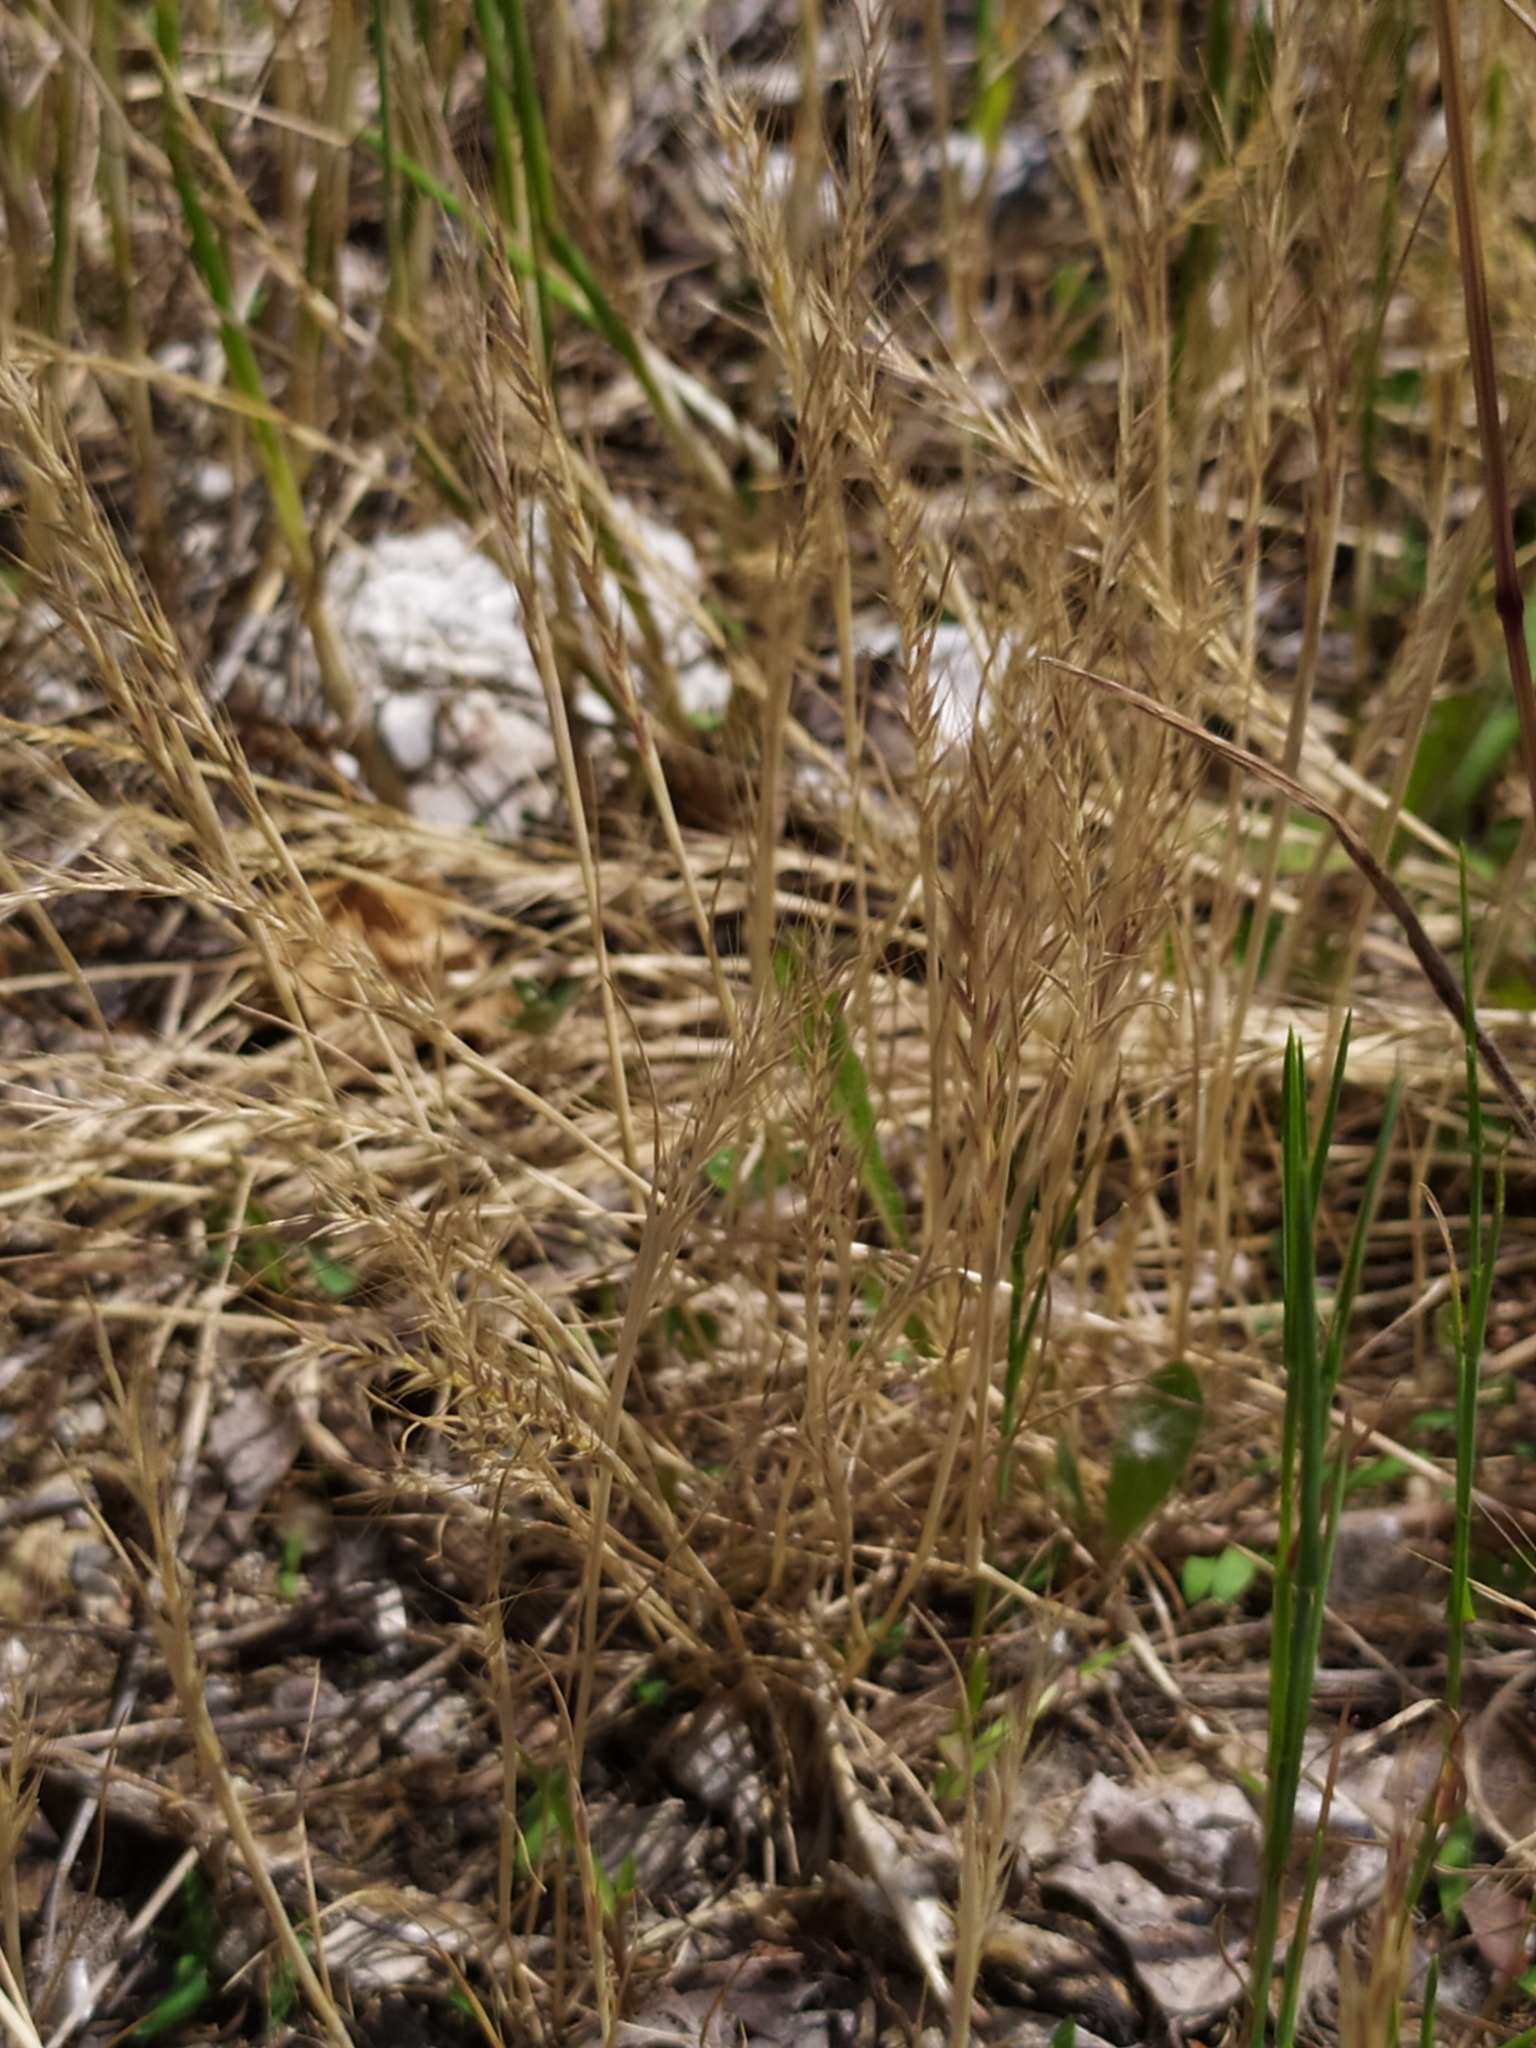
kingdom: Plantae
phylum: Tracheophyta
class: Liliopsida
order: Poales
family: Poaceae
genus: Festuca
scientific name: Festuca myuros
